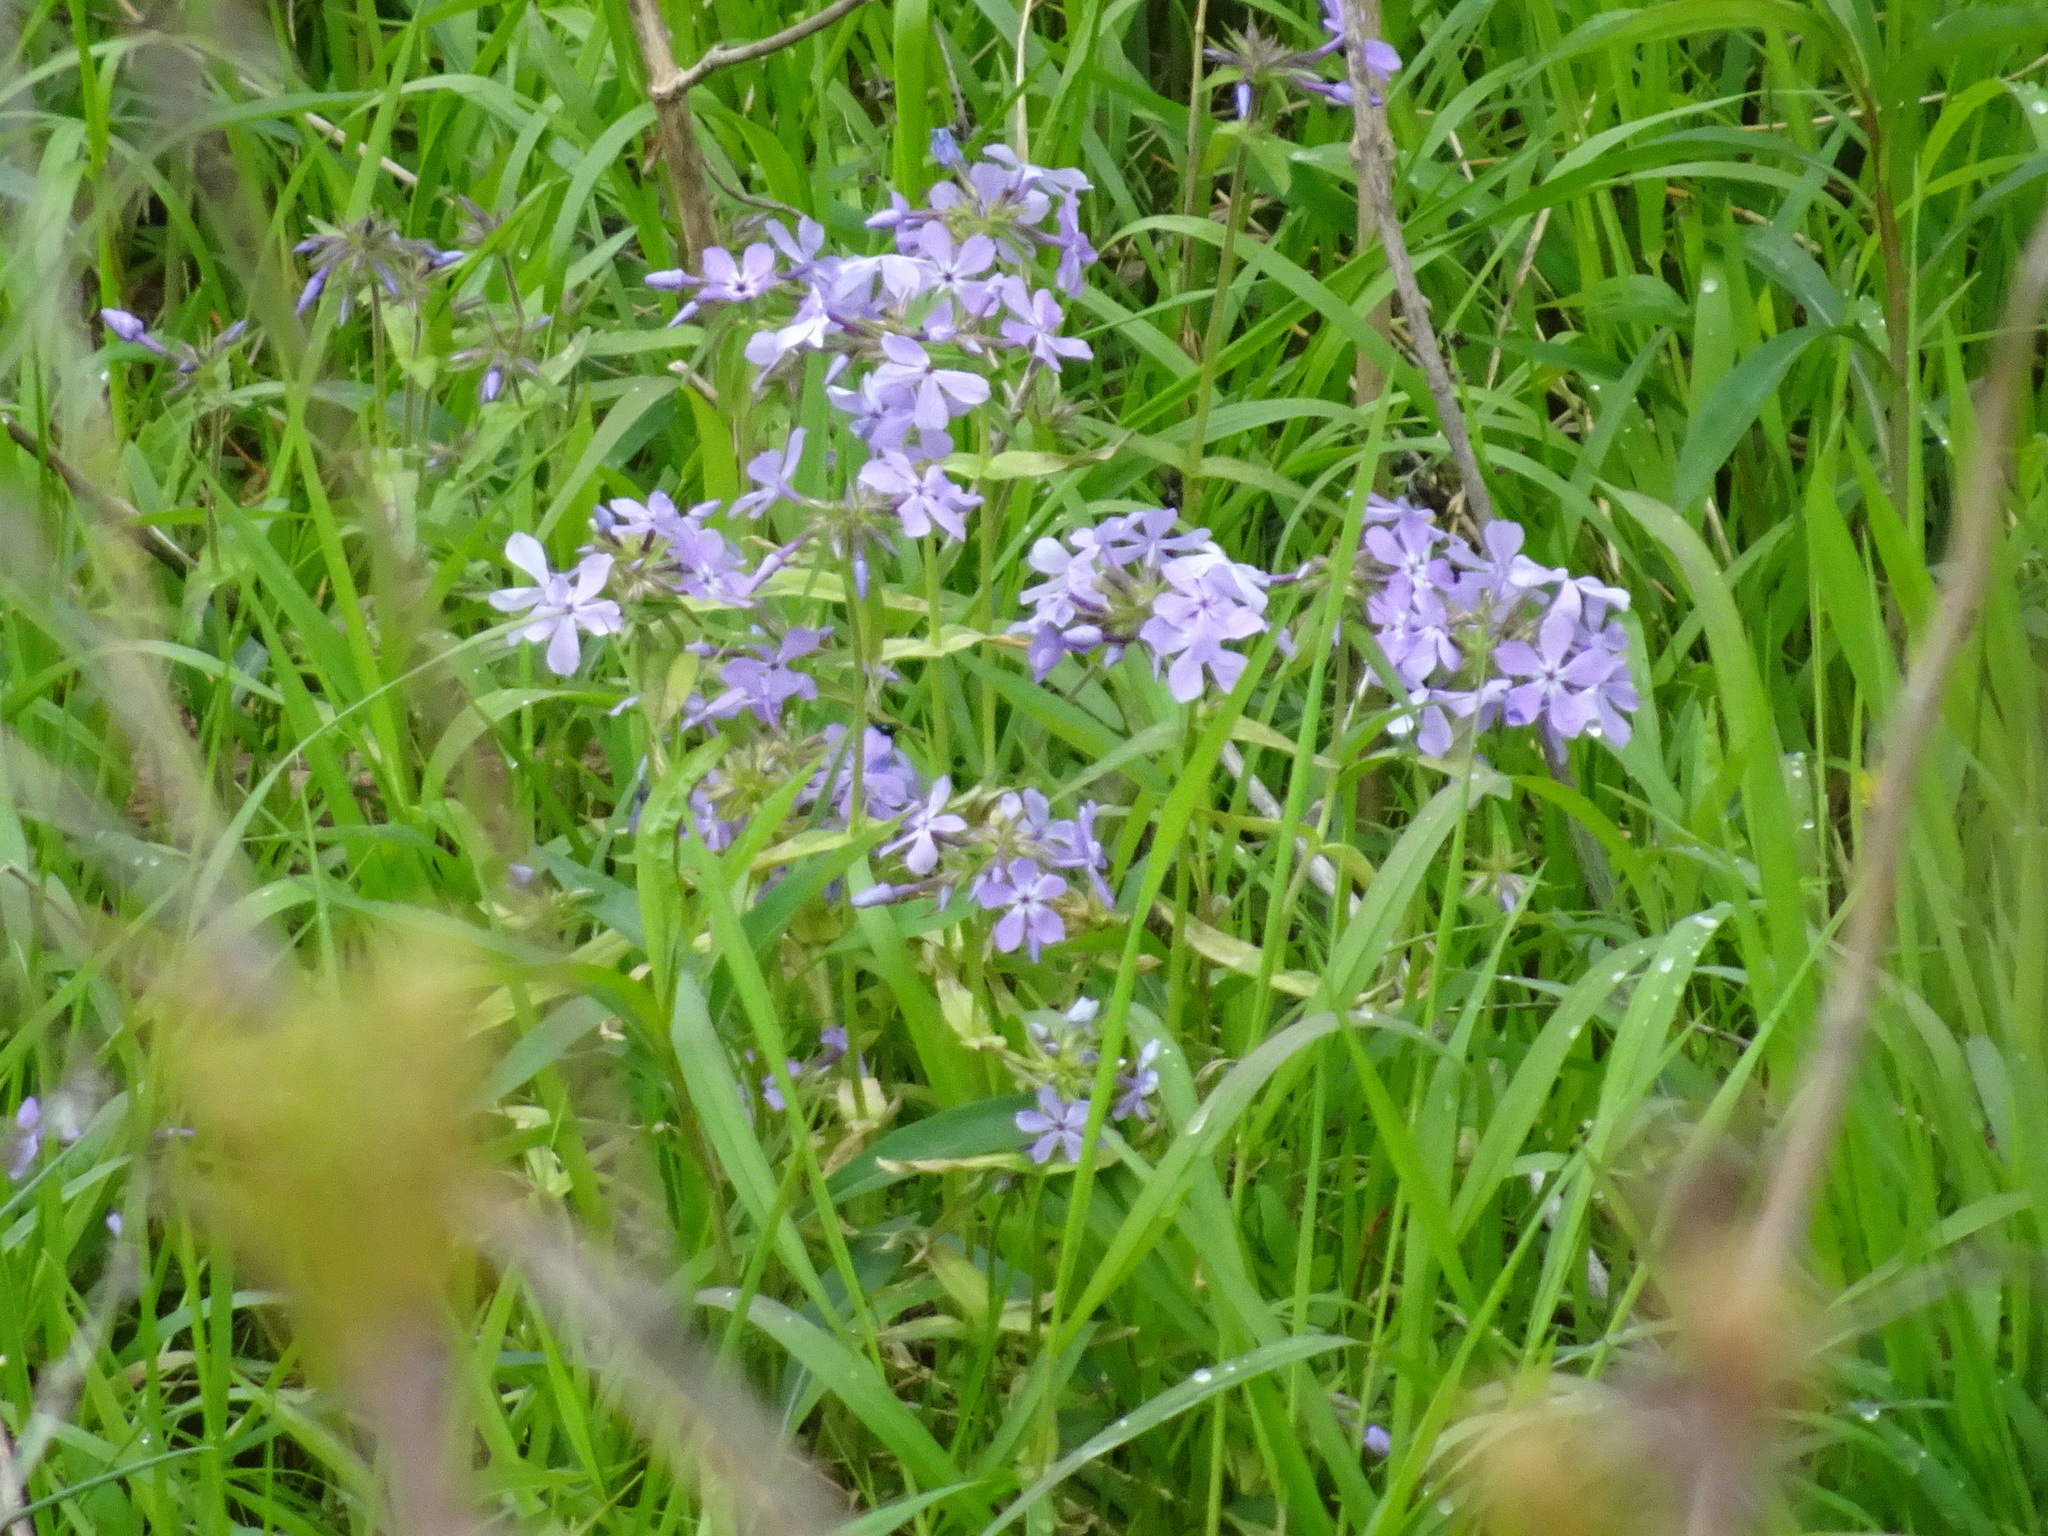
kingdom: Plantae
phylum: Tracheophyta
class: Magnoliopsida
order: Ericales
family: Polemoniaceae
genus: Phlox
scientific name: Phlox divaricata
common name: Blue phlox
